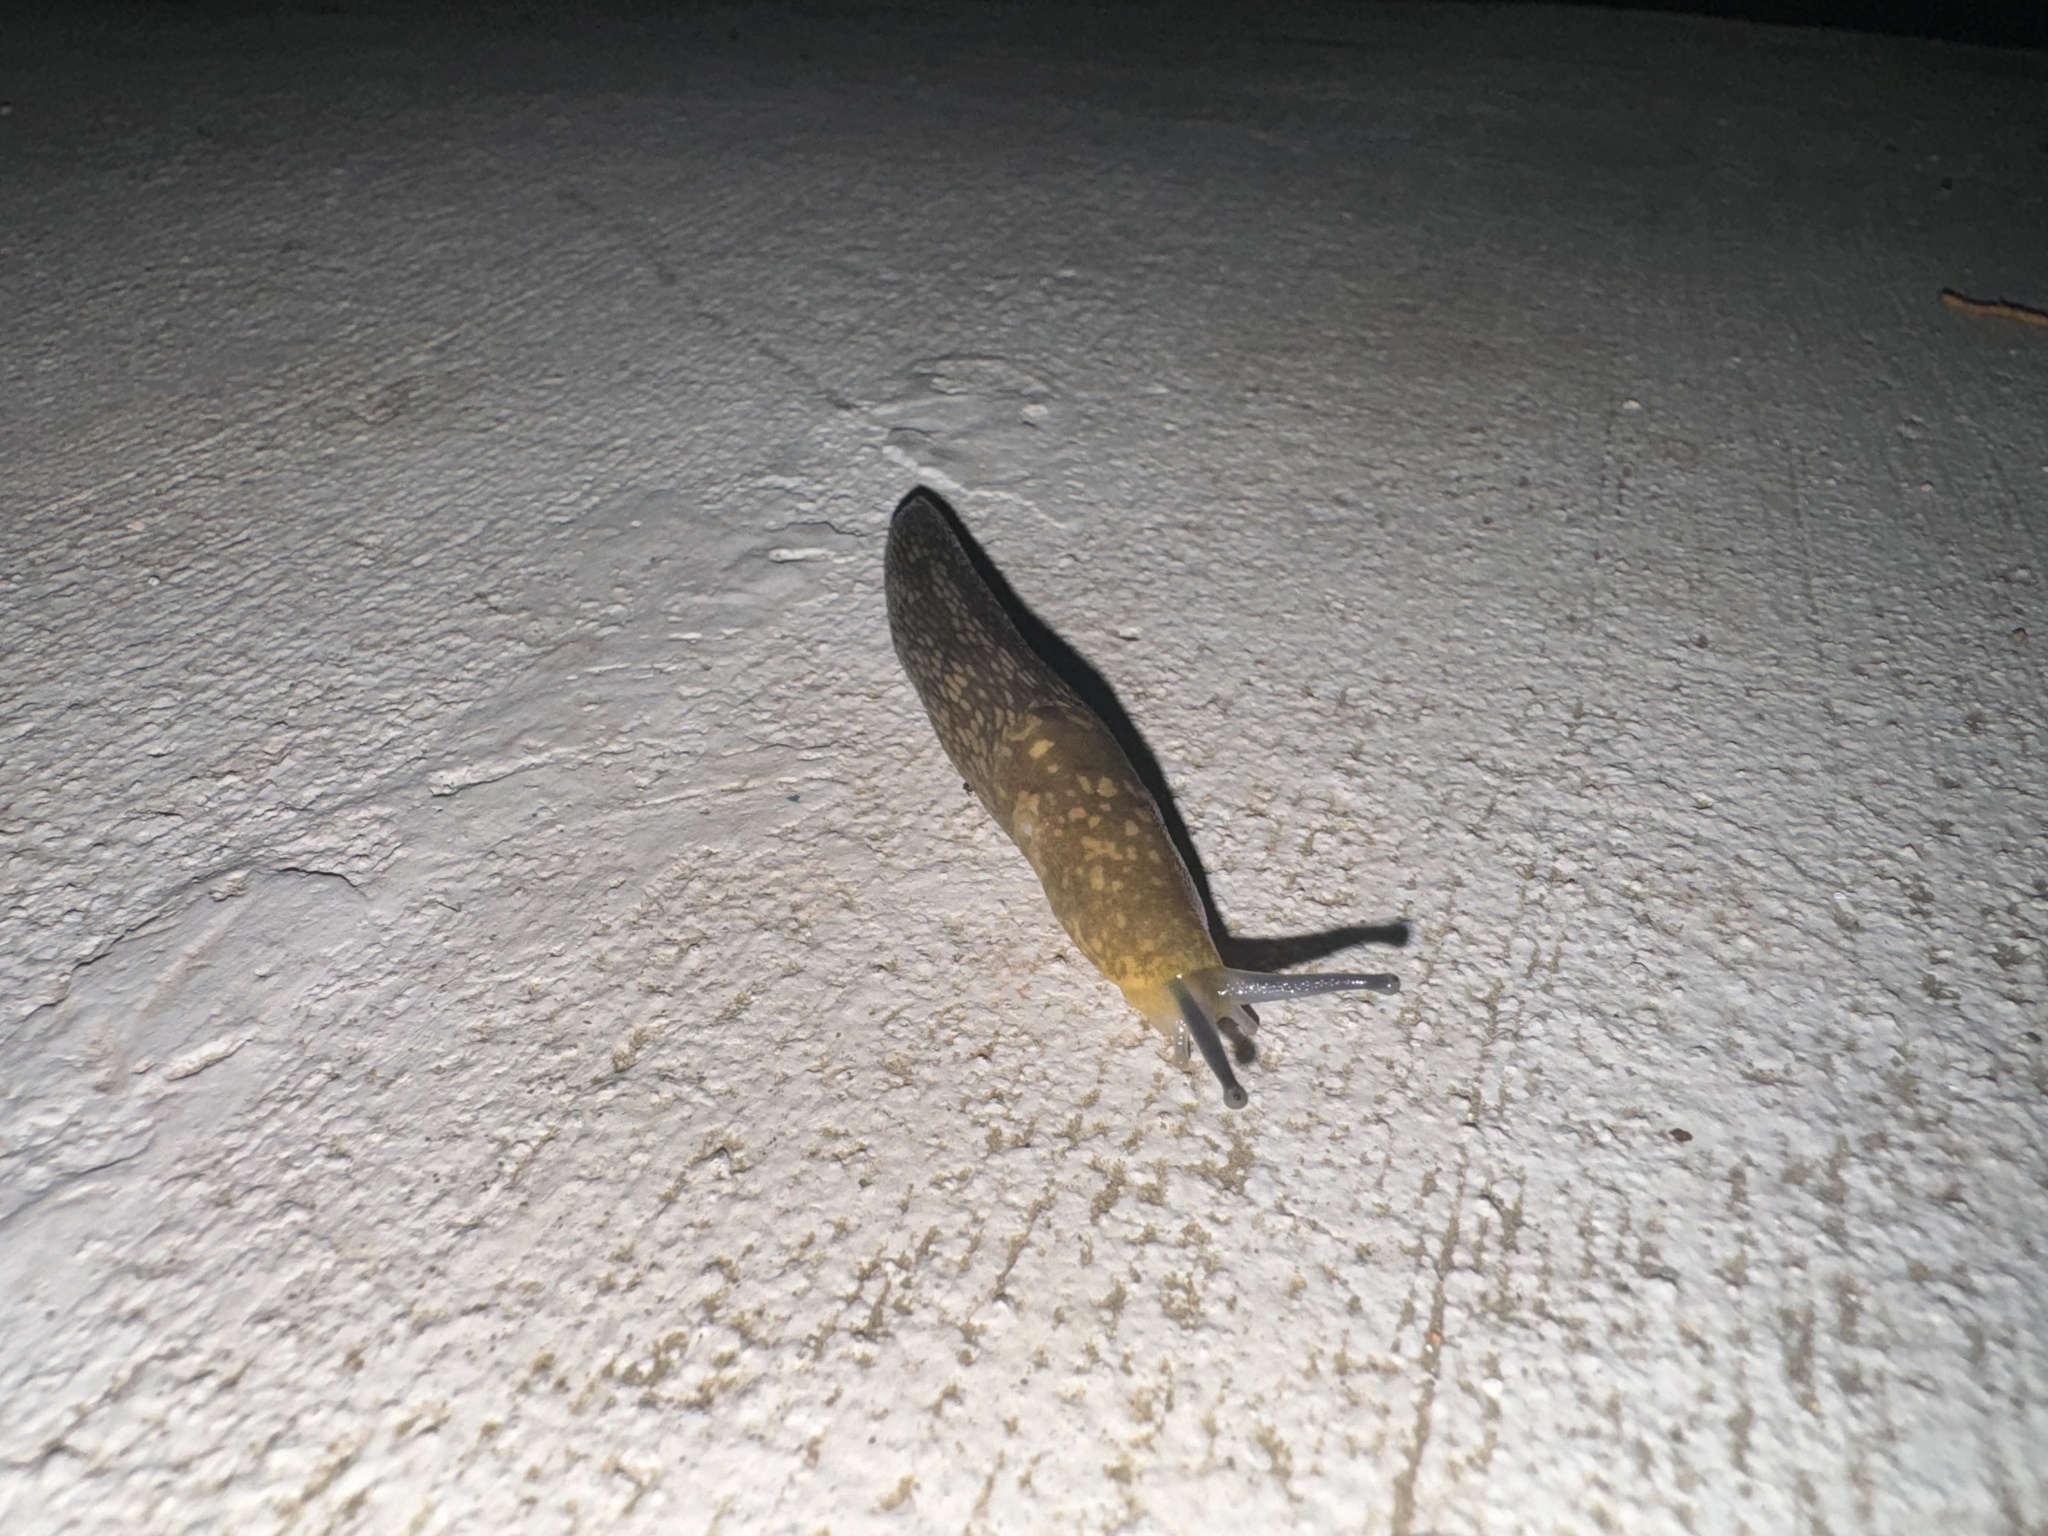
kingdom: Animalia
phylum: Mollusca
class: Gastropoda
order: Stylommatophora
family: Limacidae
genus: Limacus
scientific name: Limacus flavus
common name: Yellow gardenslug
